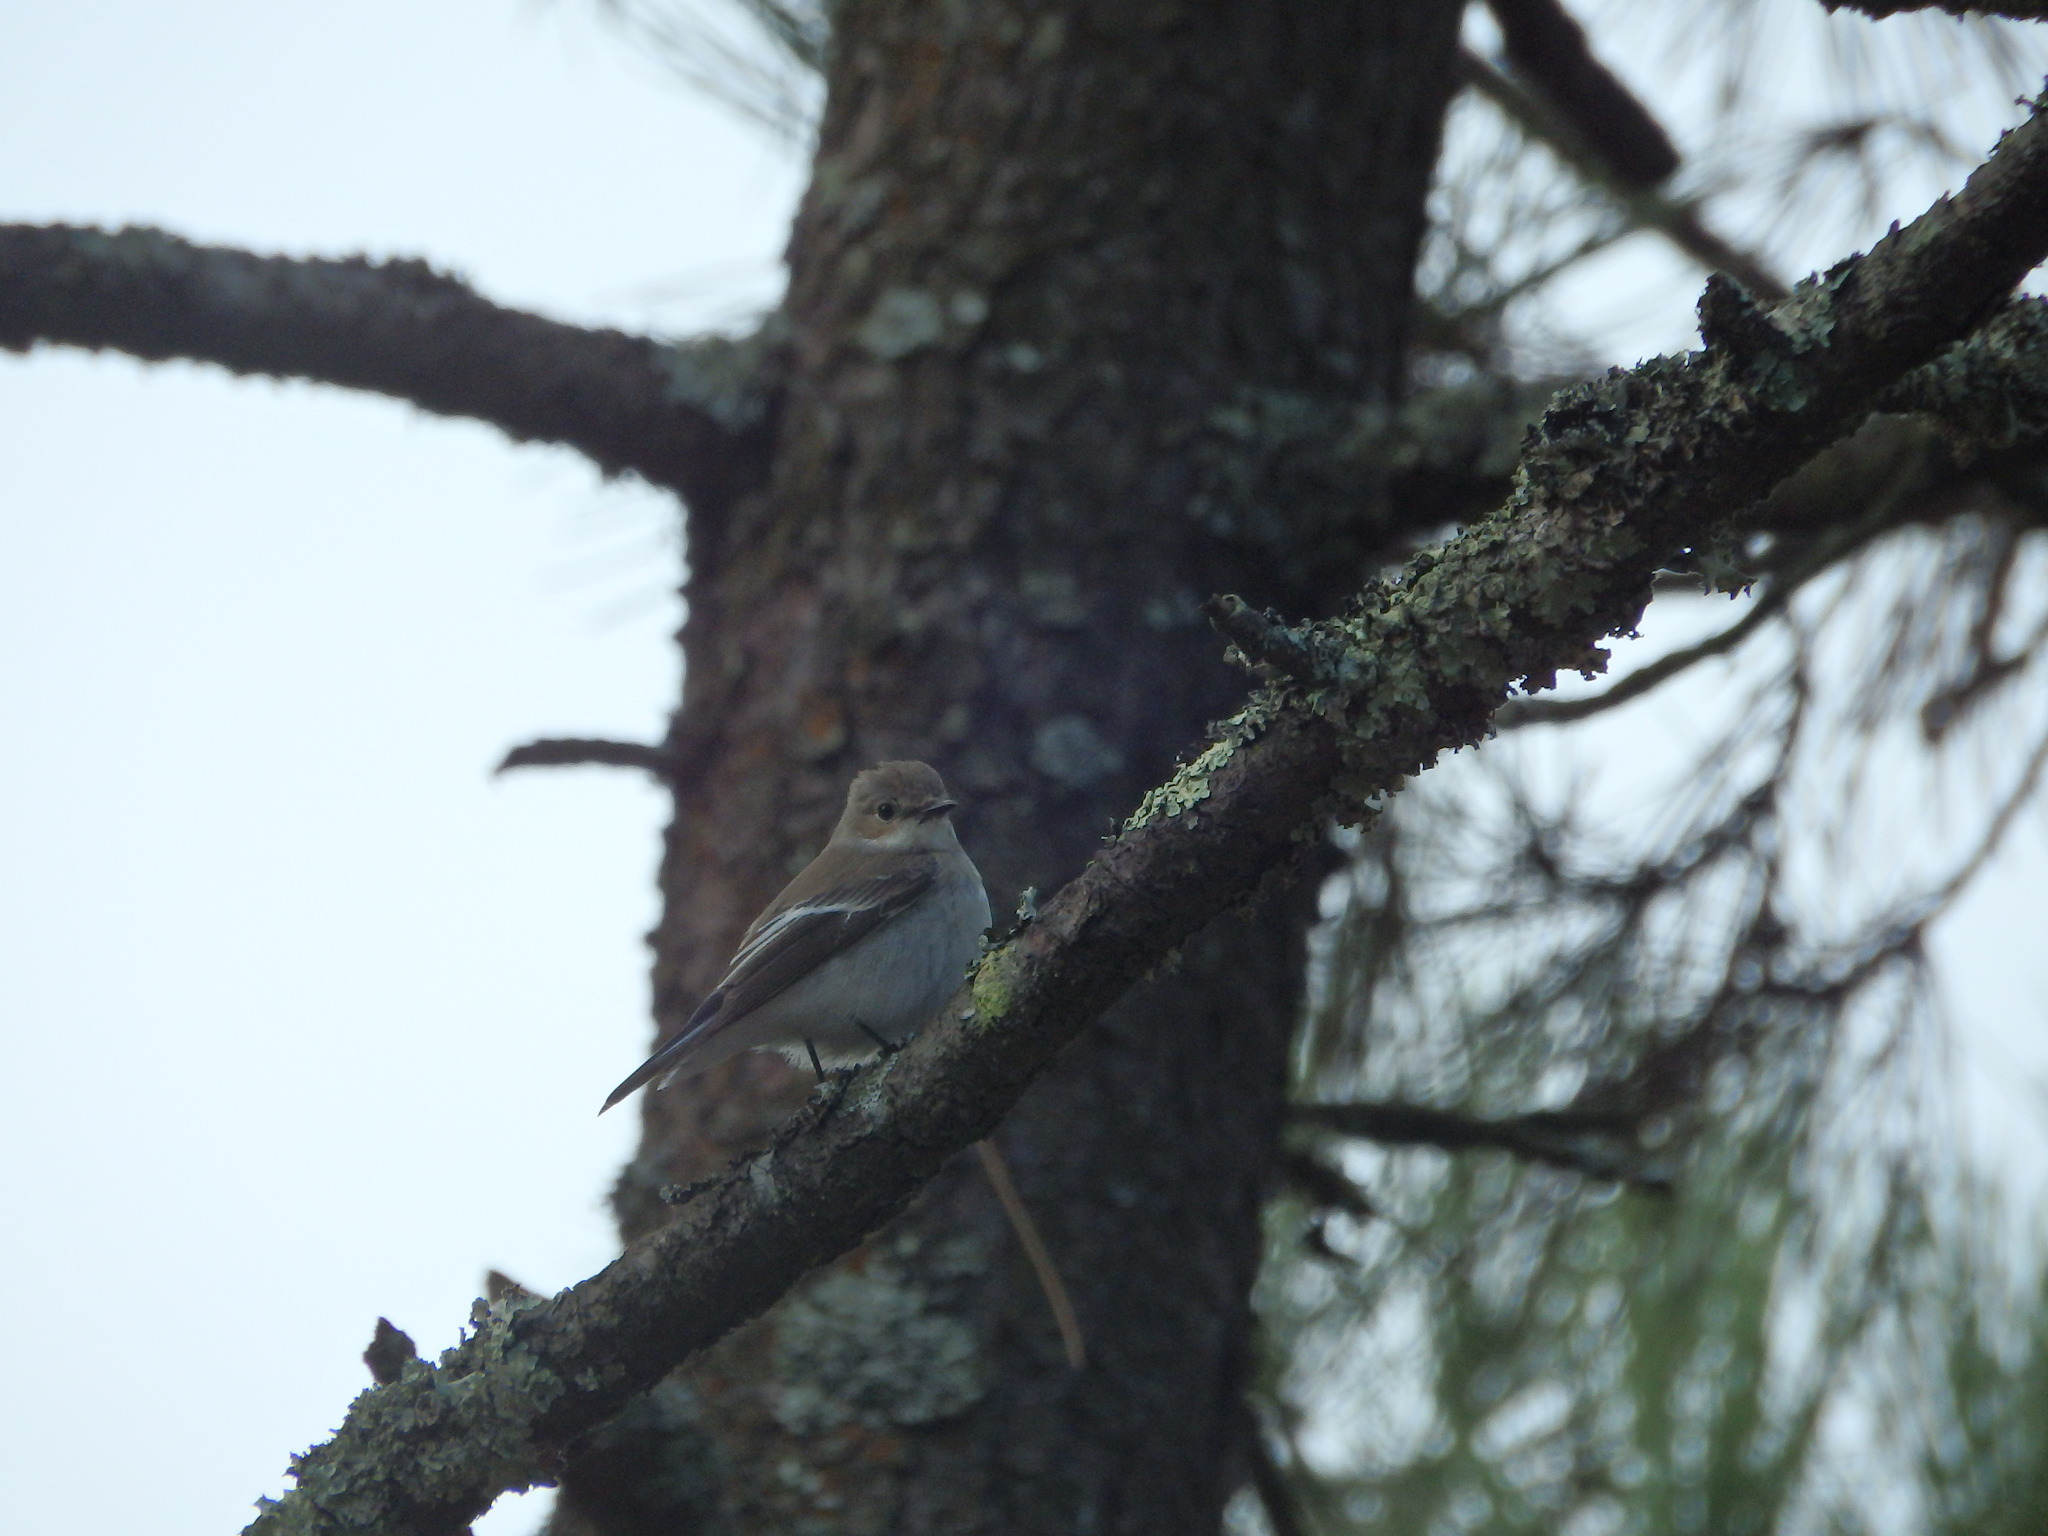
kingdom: Animalia
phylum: Chordata
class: Aves
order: Passeriformes
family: Muscicapidae
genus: Ficedula
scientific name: Ficedula hypoleuca
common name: European pied flycatcher
